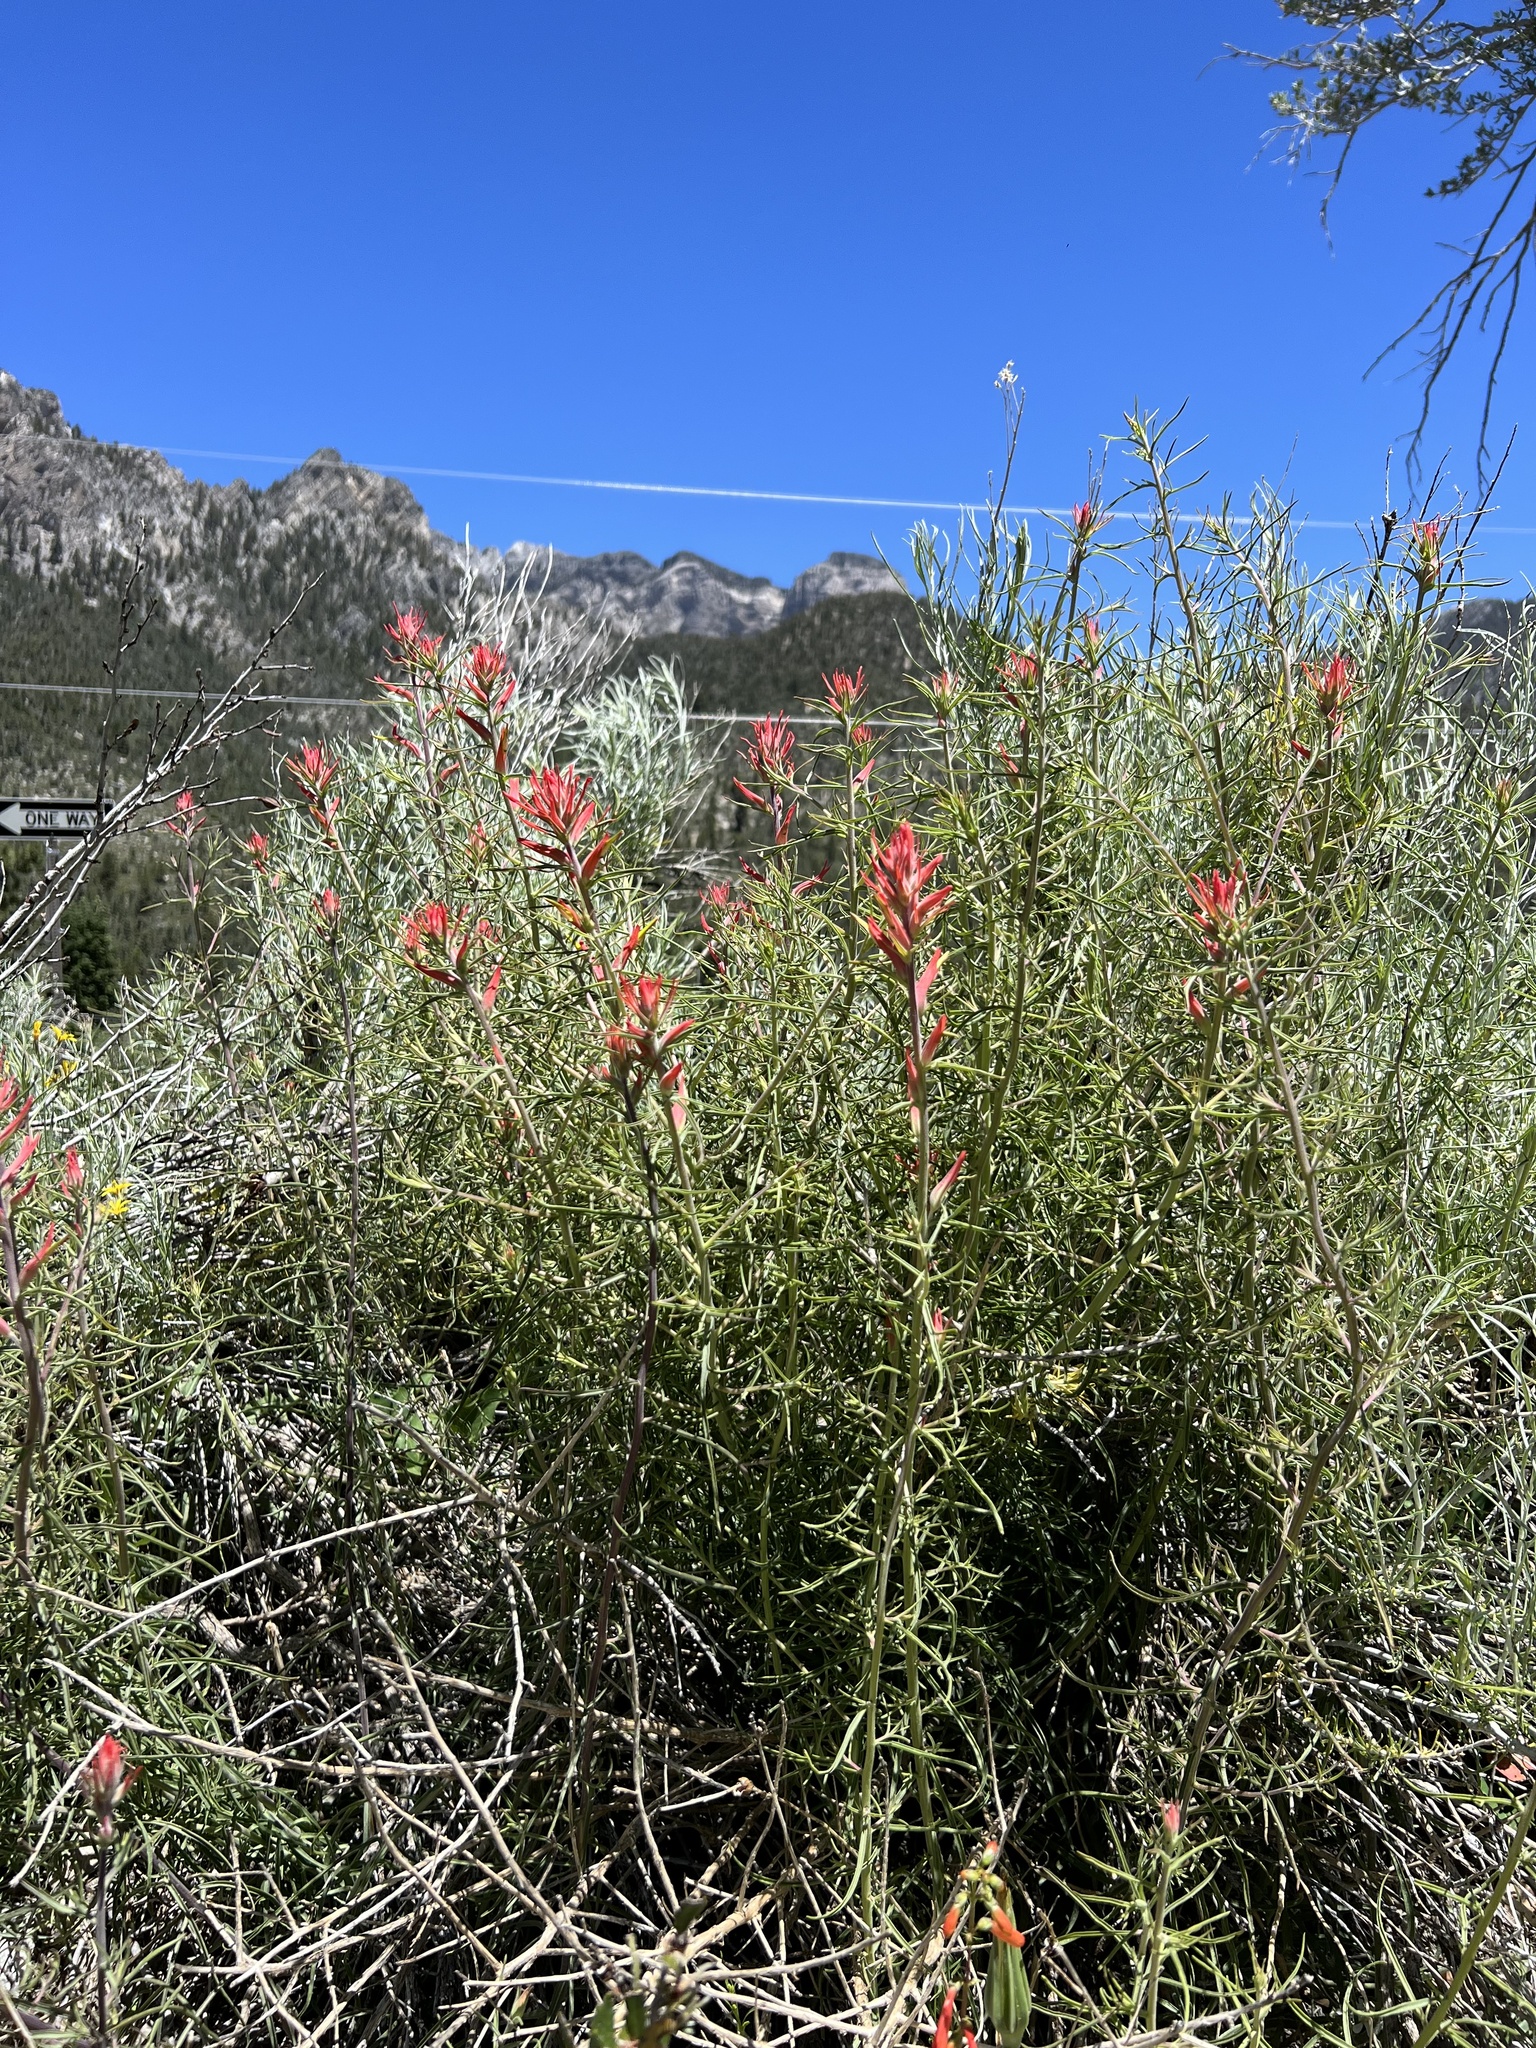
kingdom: Plantae
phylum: Tracheophyta
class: Magnoliopsida
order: Lamiales
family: Orobanchaceae
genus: Castilleja
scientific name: Castilleja linariifolia
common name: Wyoming paintbrush
